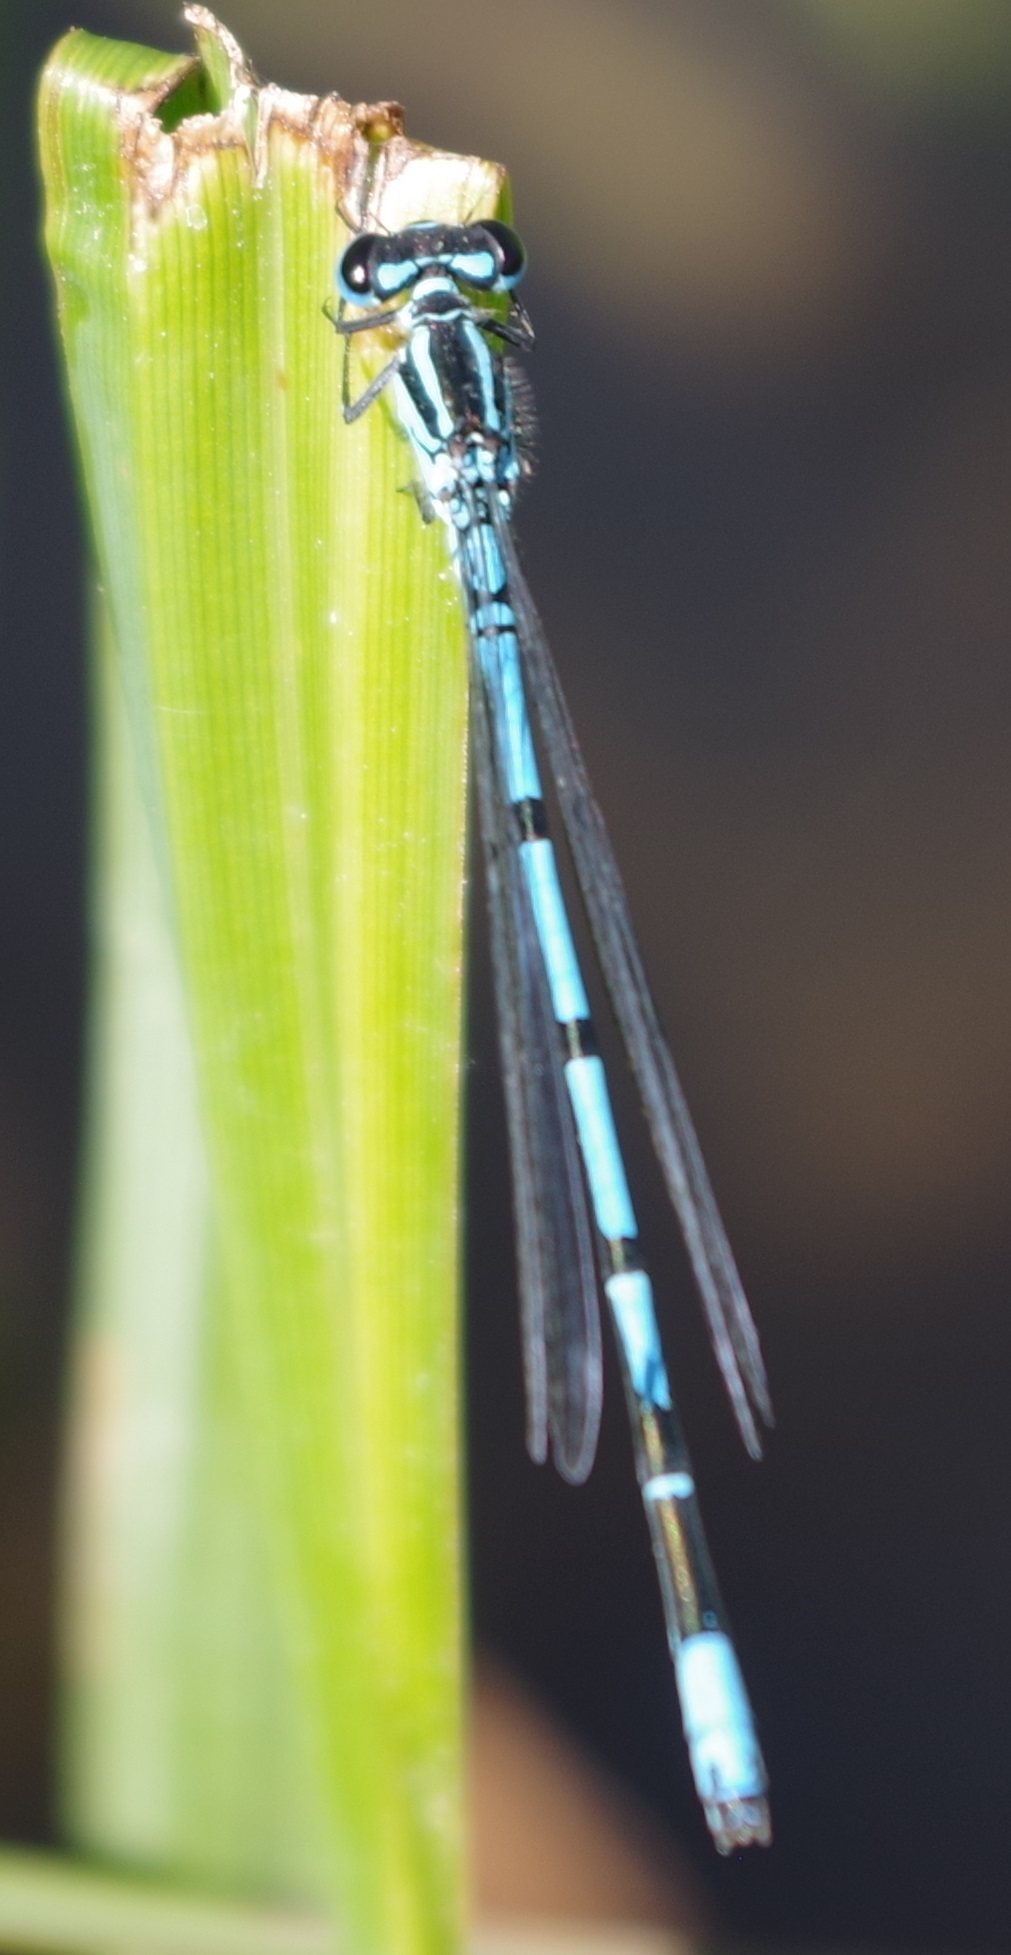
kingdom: Animalia
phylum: Arthropoda
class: Insecta
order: Odonata
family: Coenagrionidae
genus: Coenagrion
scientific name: Coenagrion puella
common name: Azure damselfly
